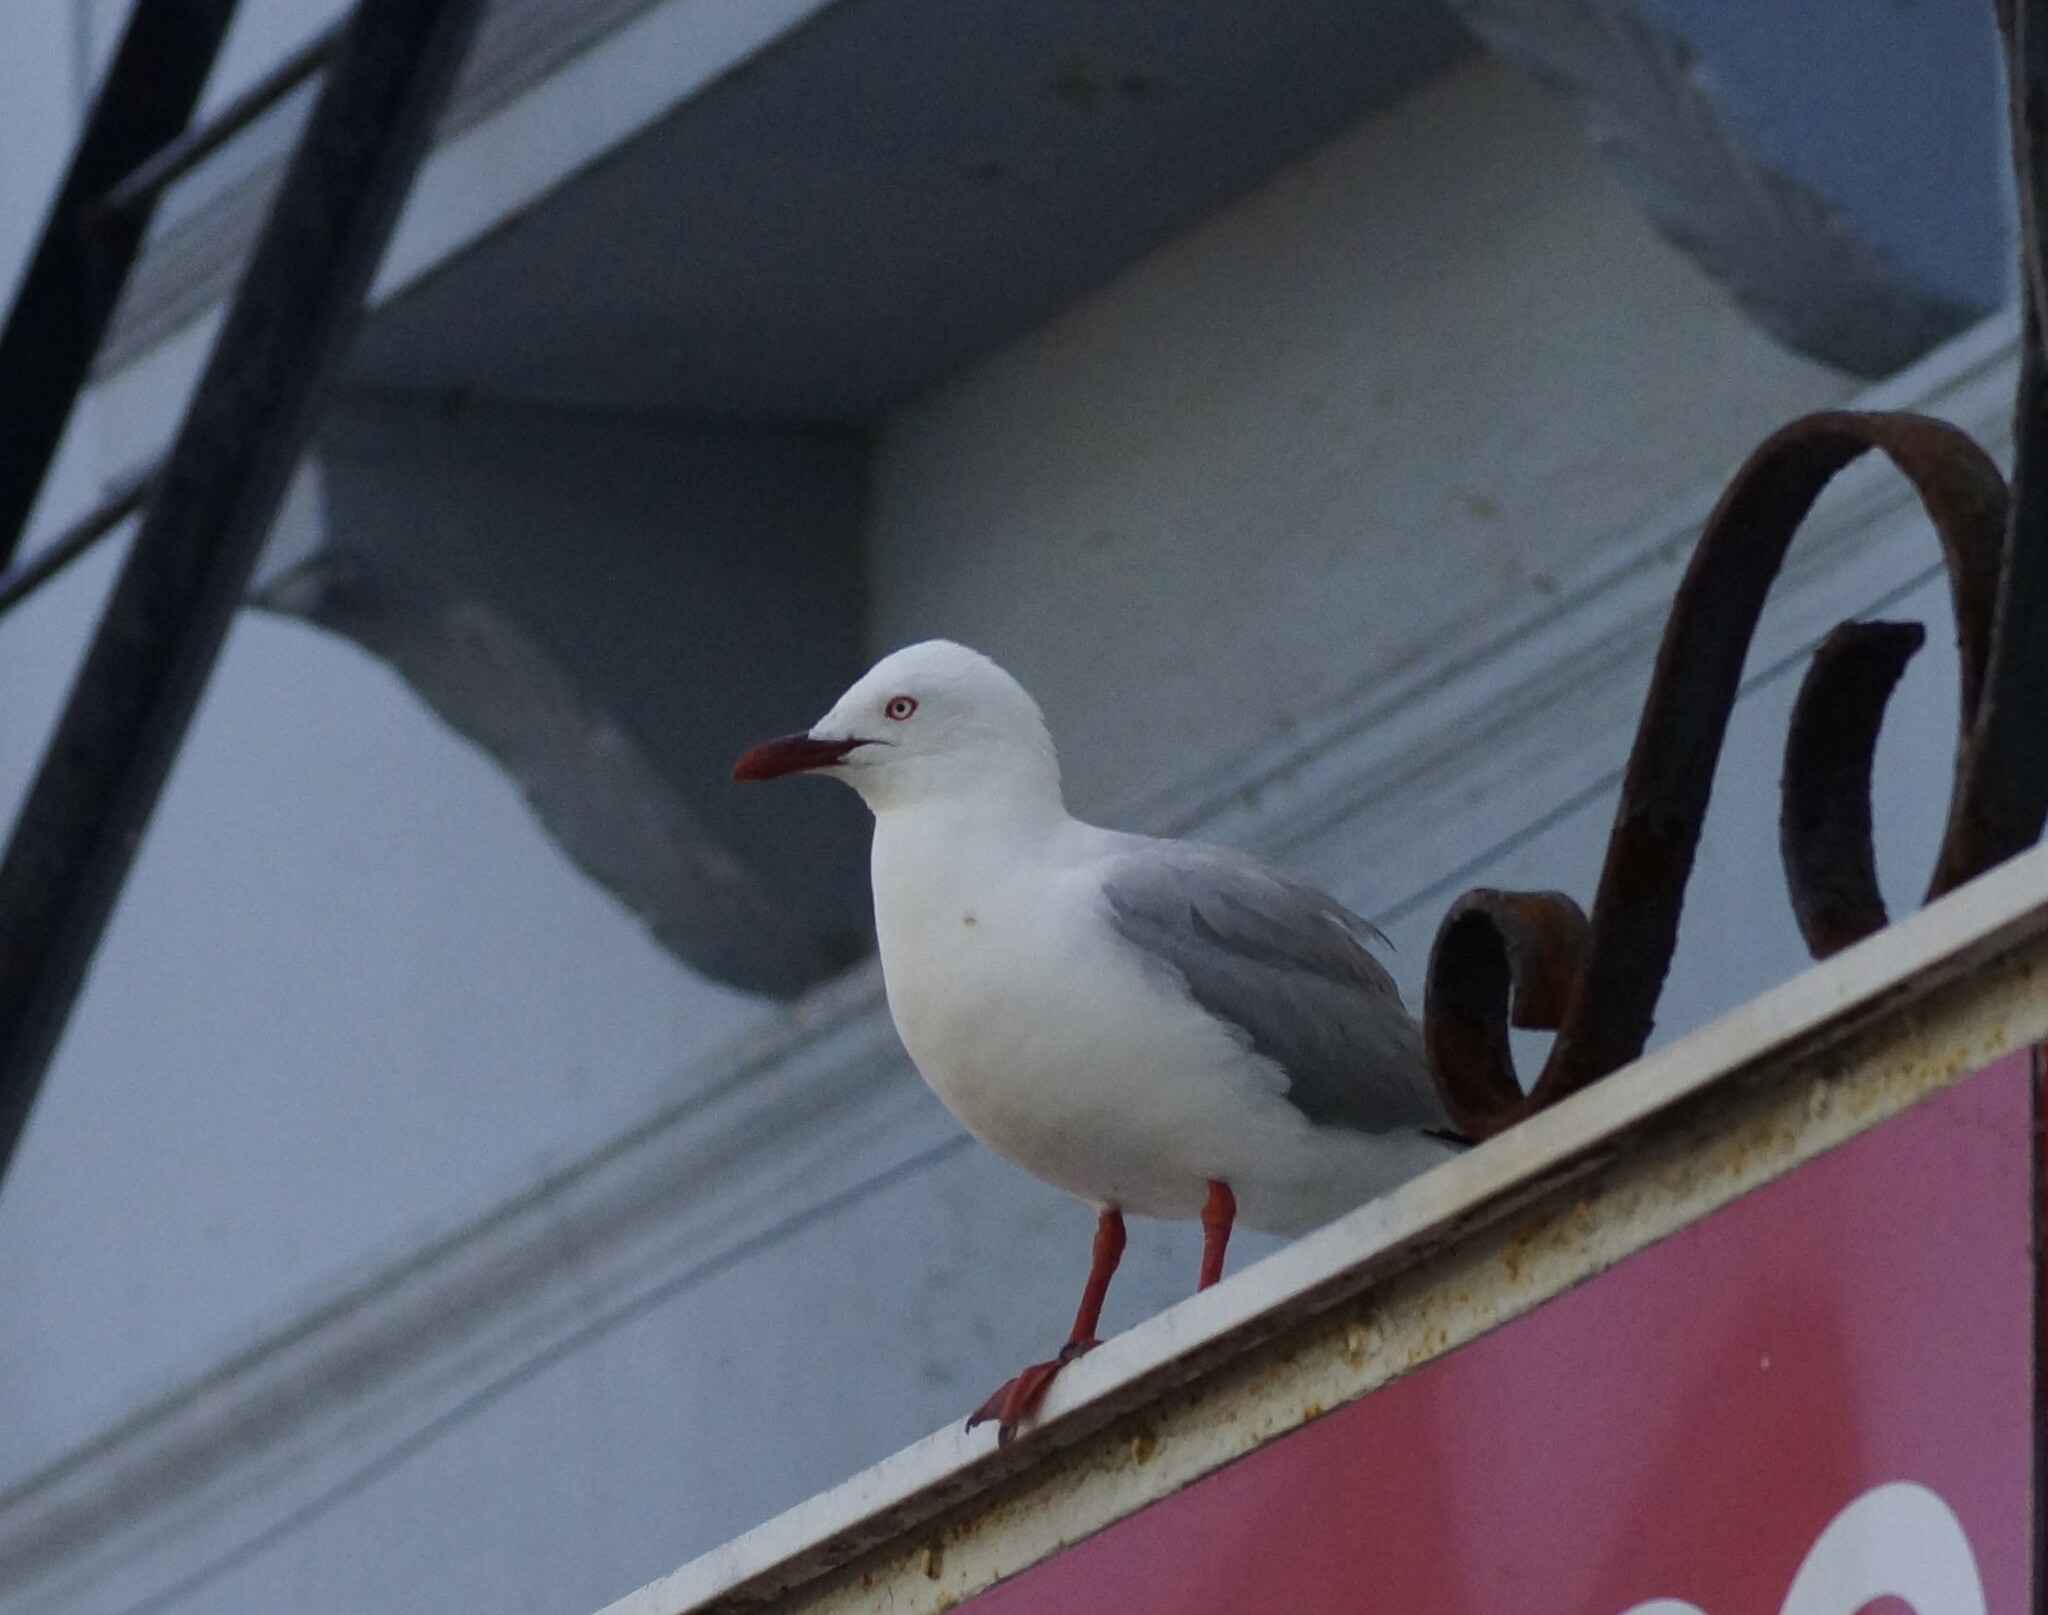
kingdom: Animalia
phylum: Chordata
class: Aves
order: Charadriiformes
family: Laridae
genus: Chroicocephalus
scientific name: Chroicocephalus novaehollandiae
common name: Silver gull
